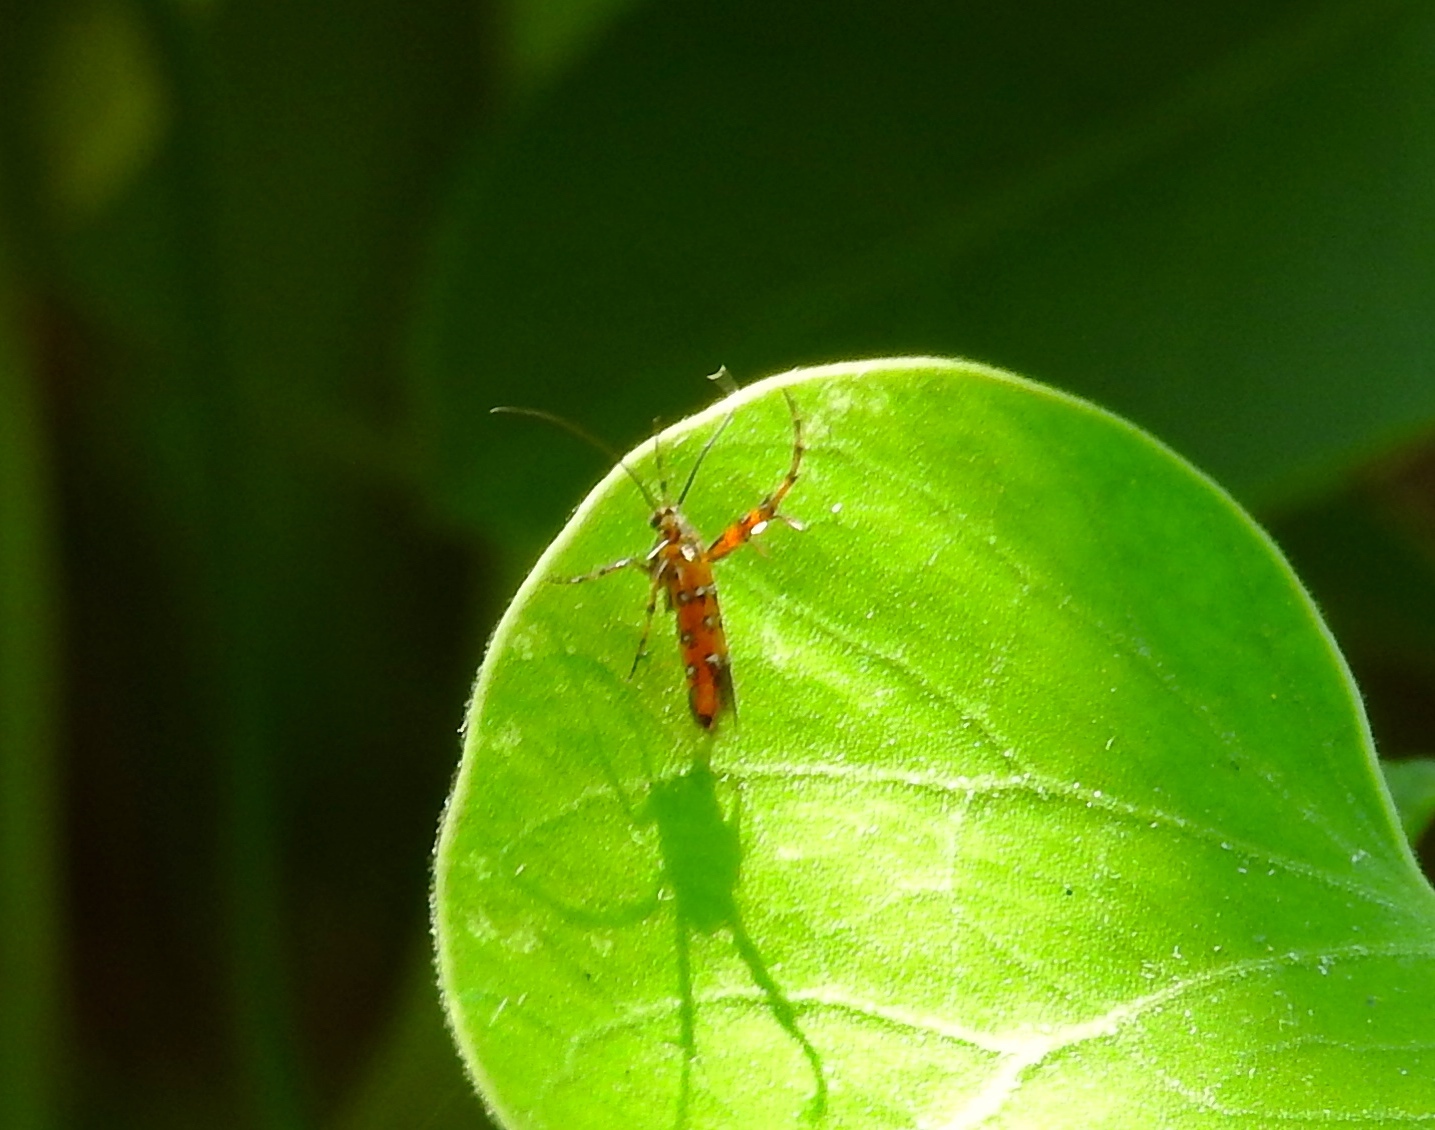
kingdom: Animalia
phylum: Arthropoda
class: Insecta
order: Lepidoptera
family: Heliodinidae
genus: Heliodines
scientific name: Heliodines
